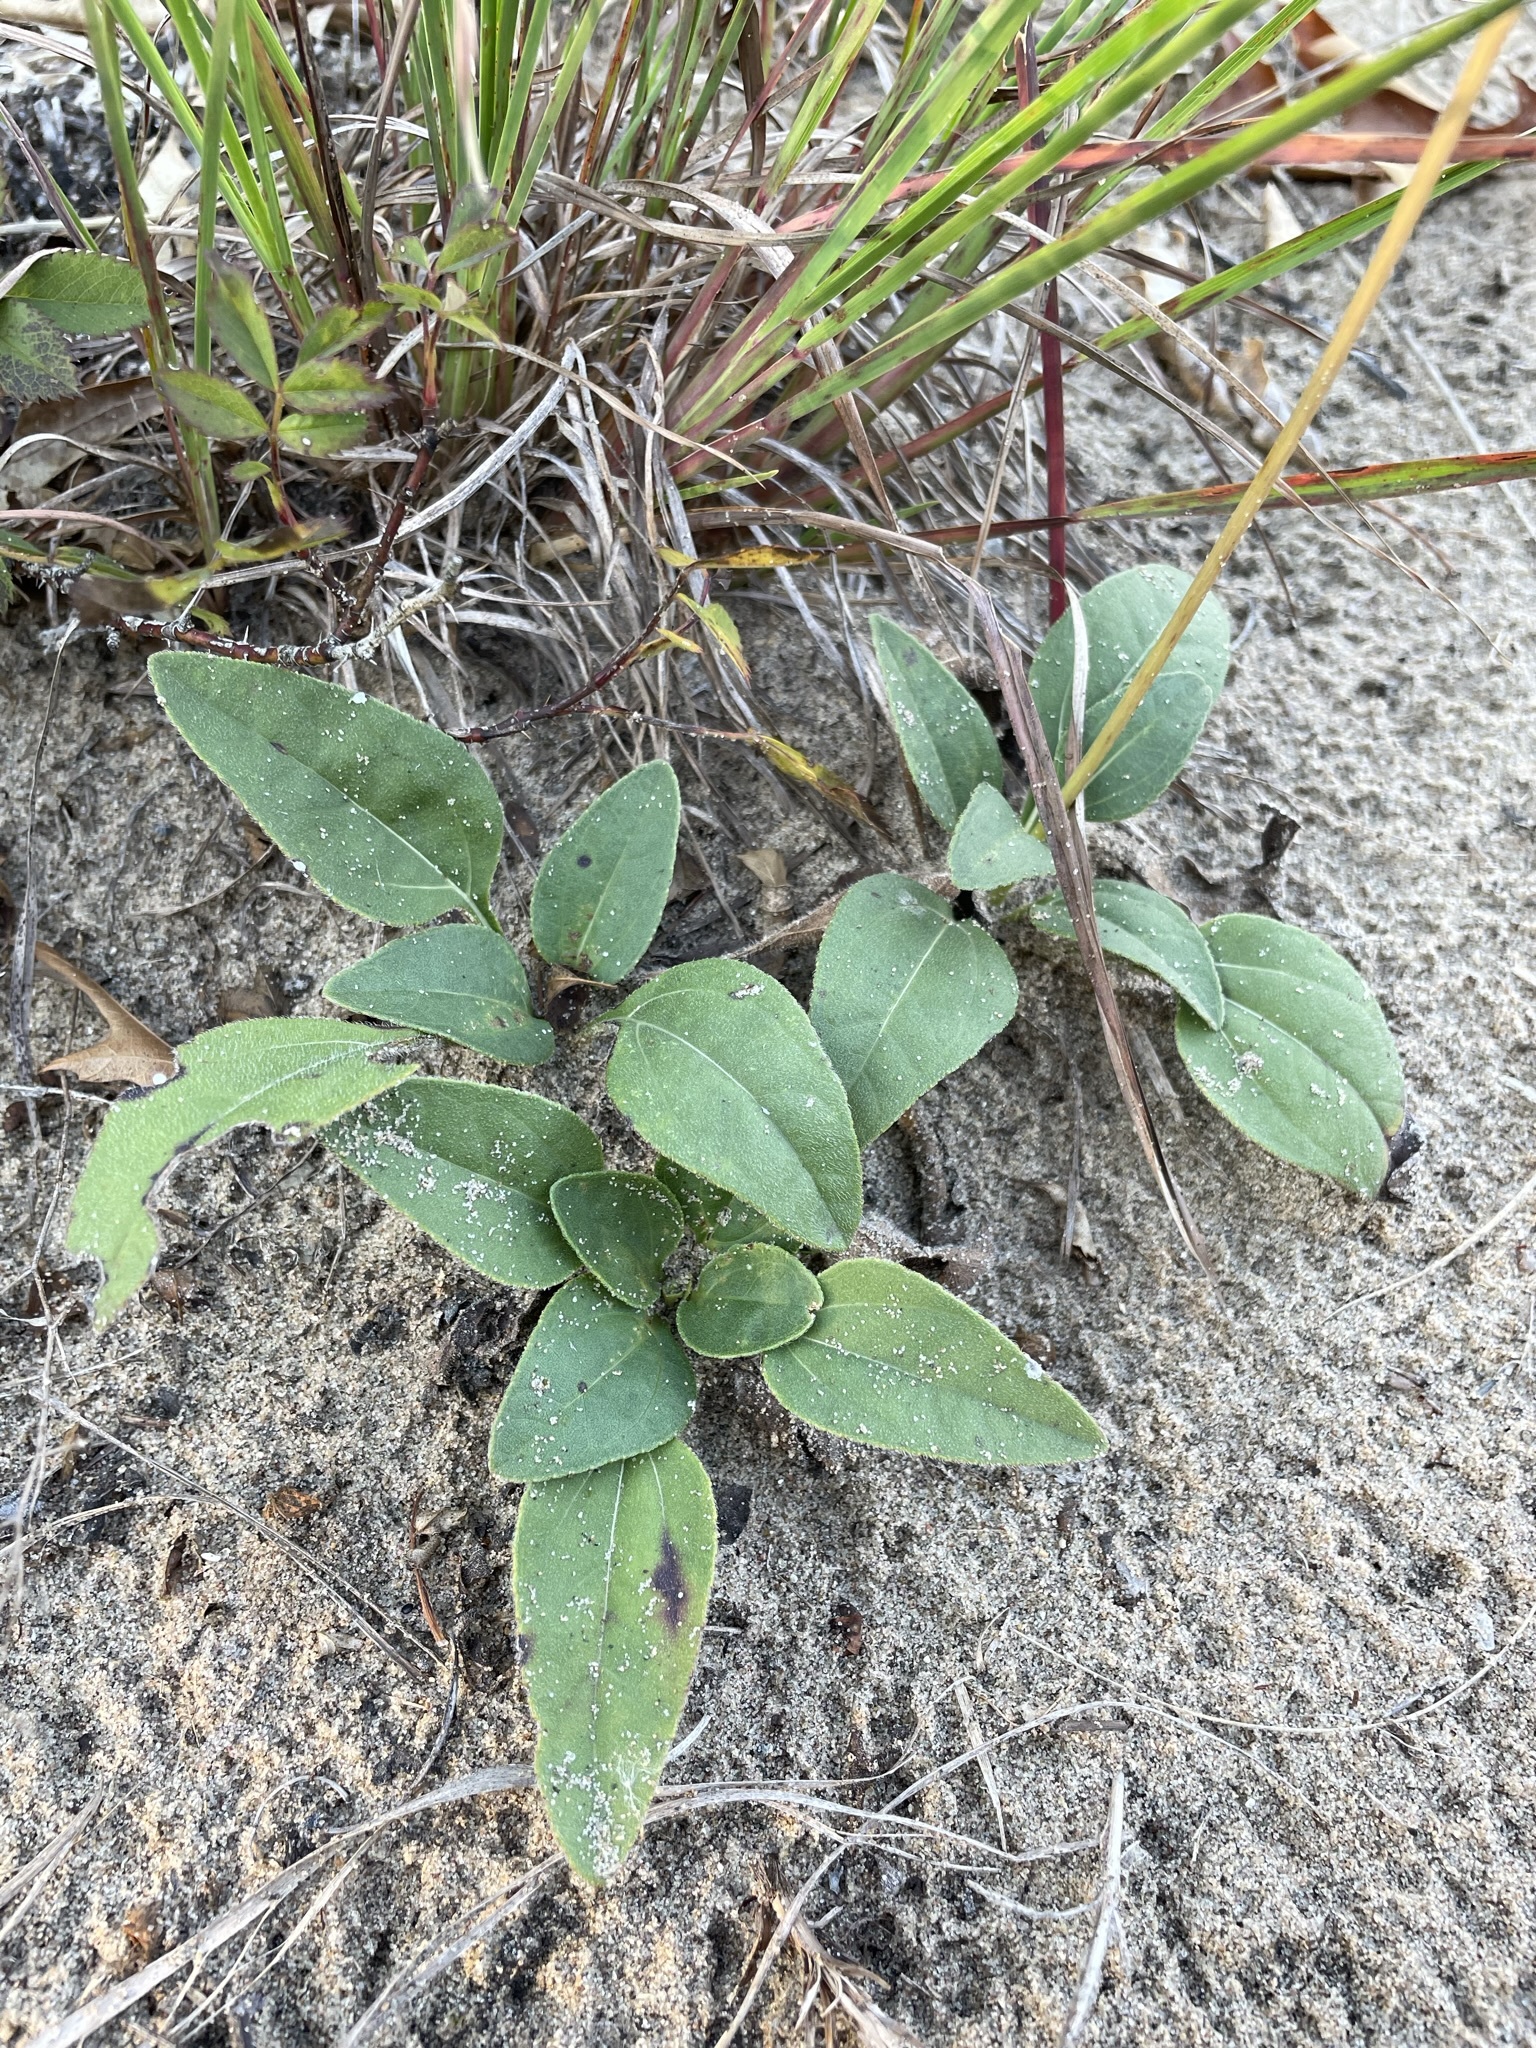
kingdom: Plantae
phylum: Tracheophyta
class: Magnoliopsida
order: Asterales
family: Asteraceae
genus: Helianthus
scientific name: Helianthus occidentalis
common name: Western sunflower
